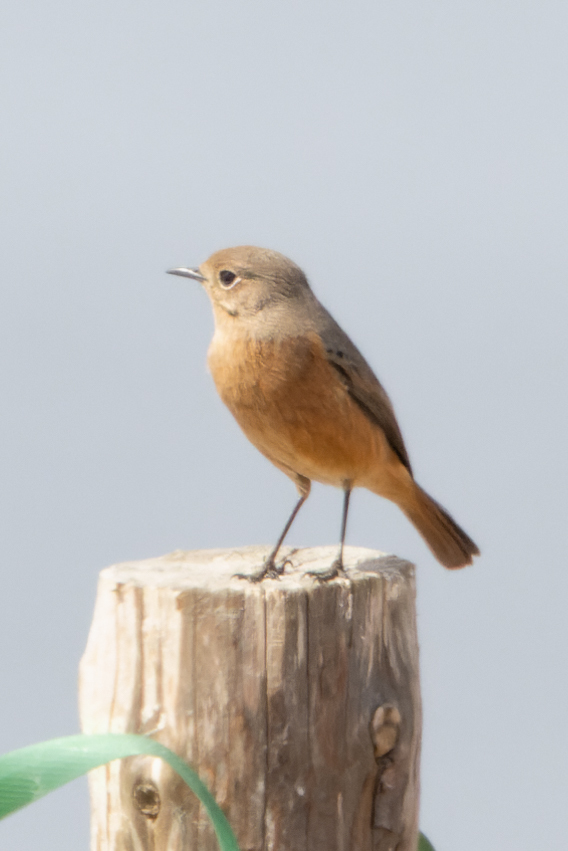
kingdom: Animalia
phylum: Chordata
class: Aves
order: Passeriformes
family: Muscicapidae
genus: Phoenicurus
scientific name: Phoenicurus phoenicurus
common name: Common redstart
